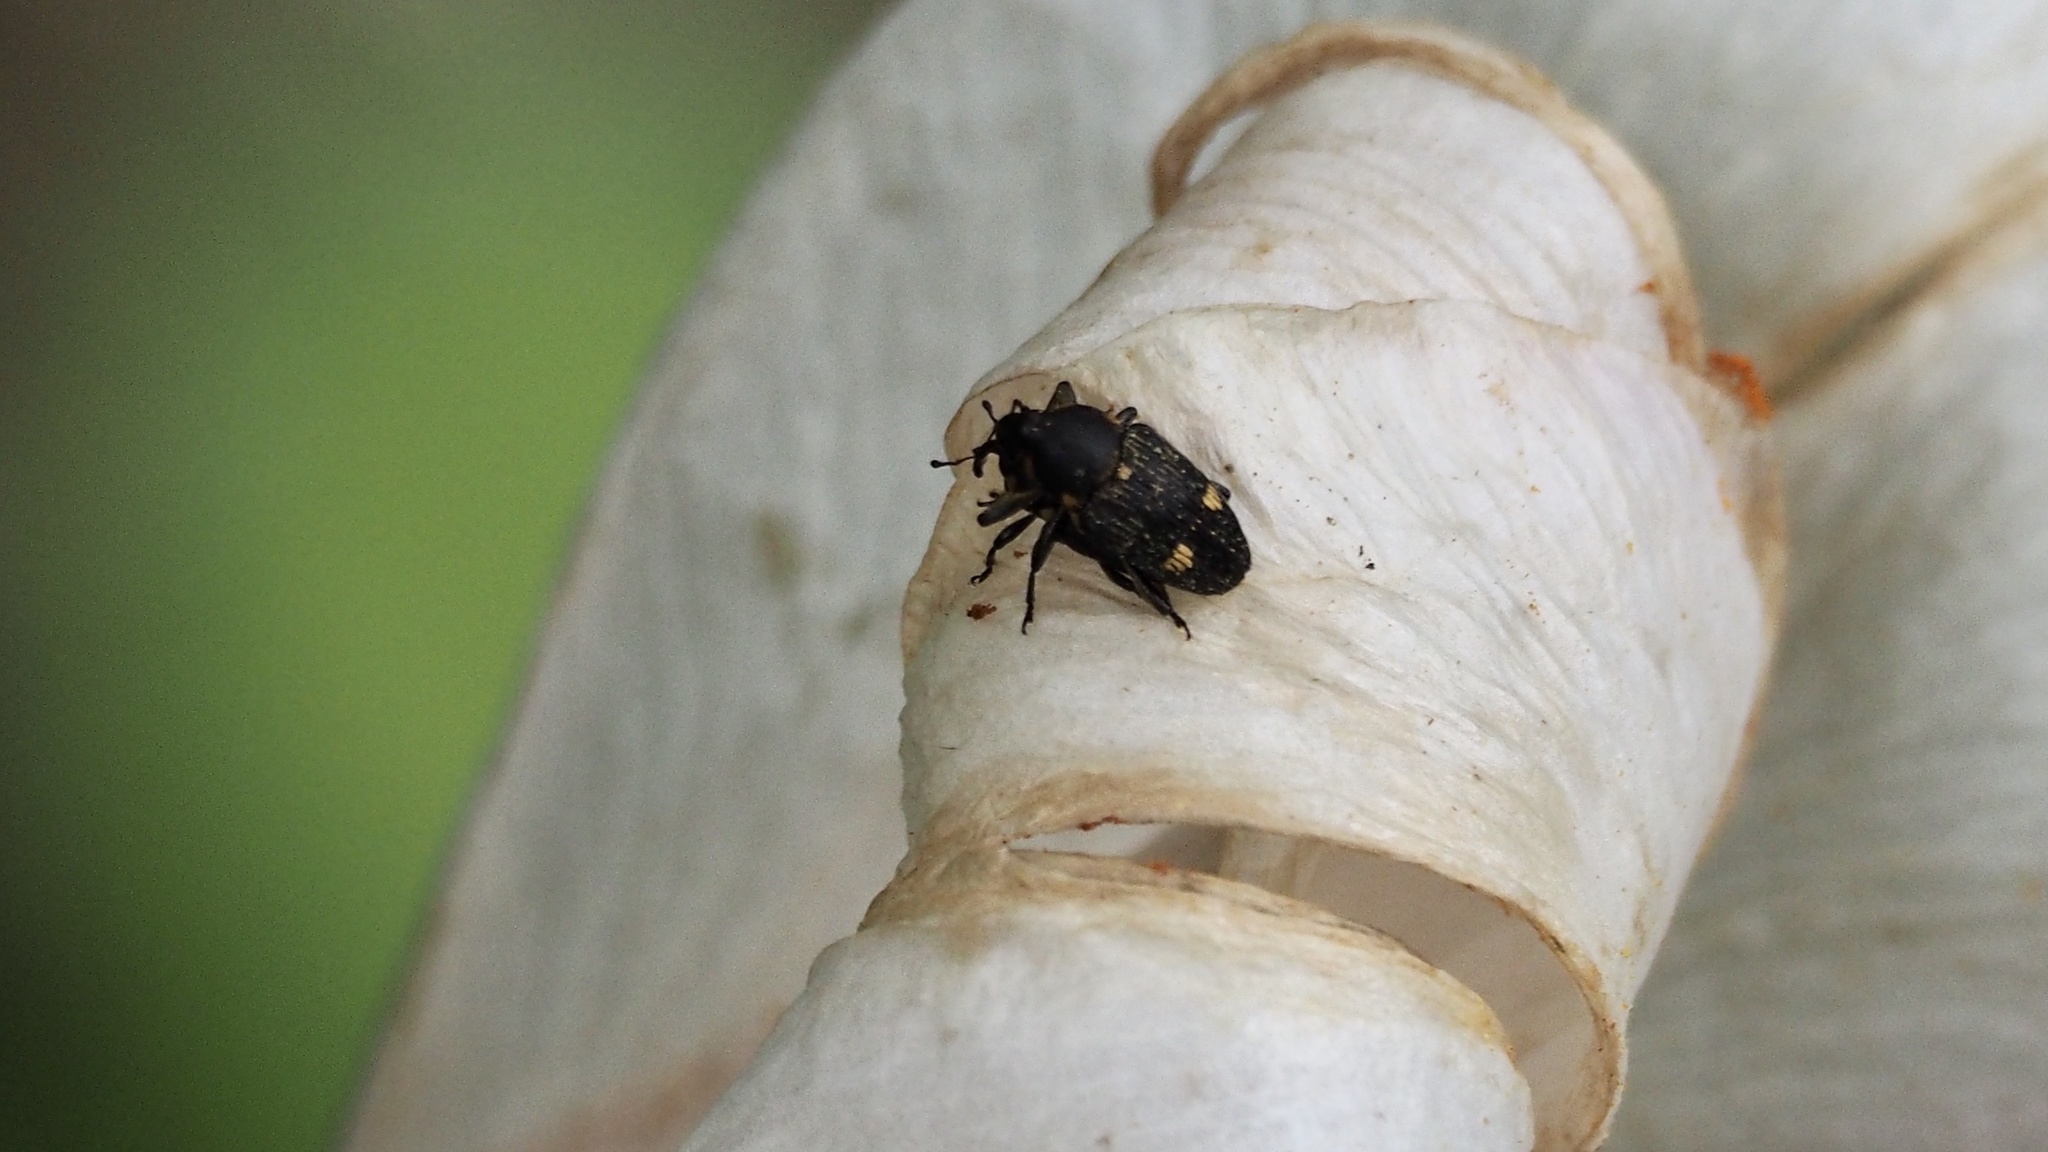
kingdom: Animalia
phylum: Arthropoda
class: Insecta
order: Coleoptera
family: Curculionidae
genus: Anthinobaris
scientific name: Anthinobaris dispilota
